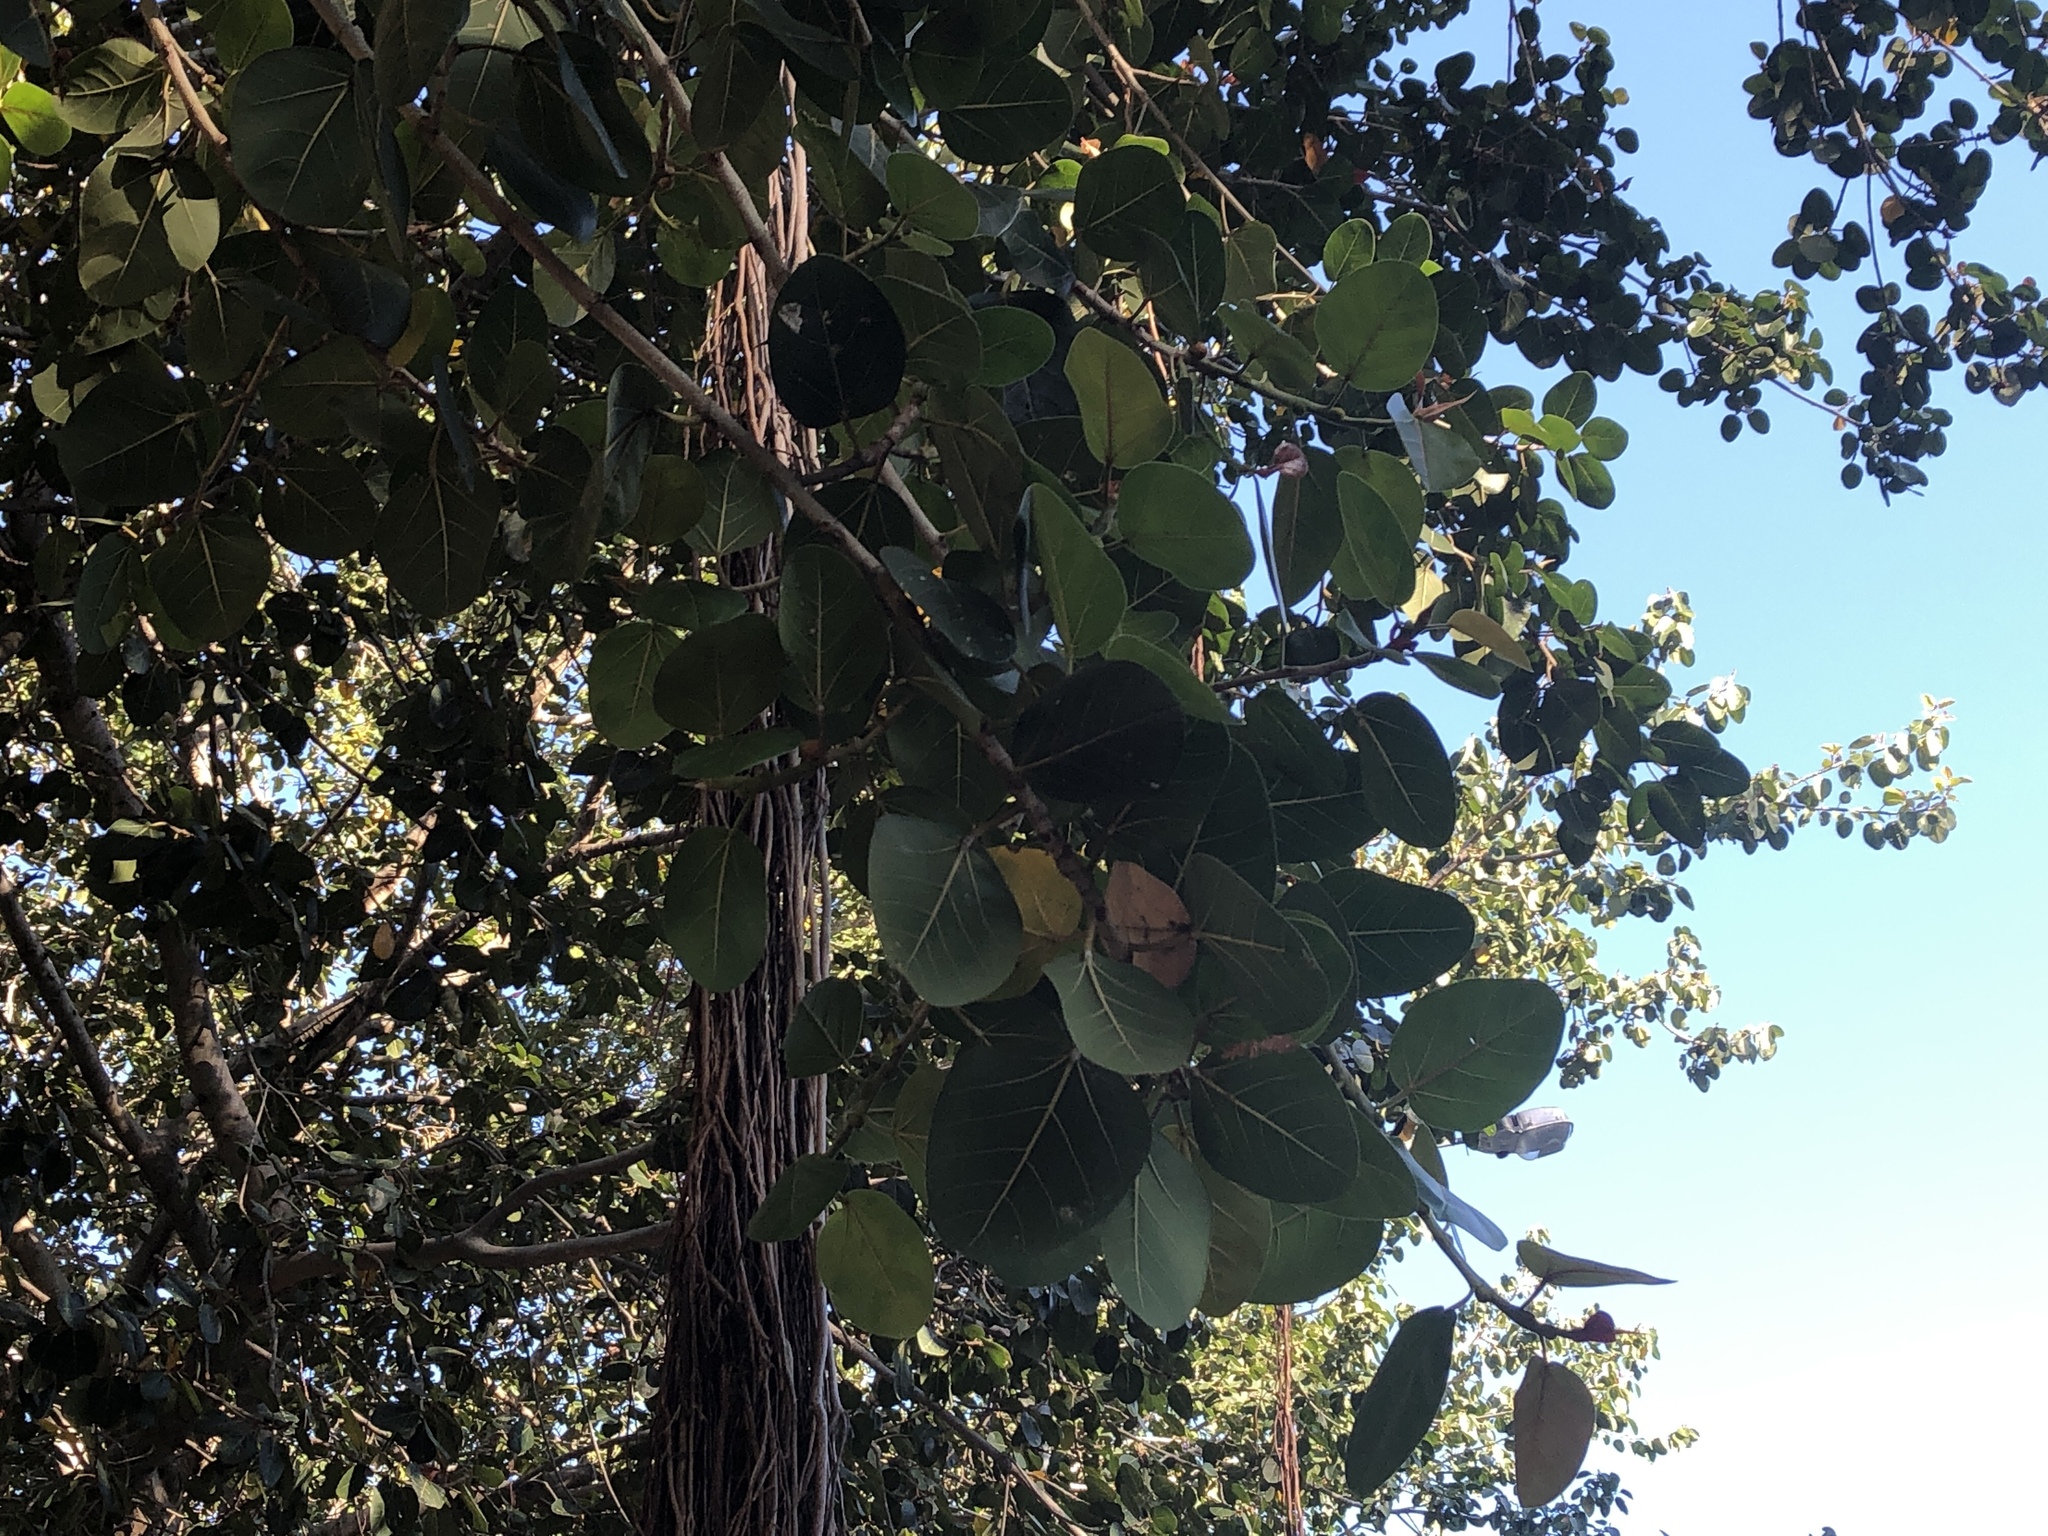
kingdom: Plantae
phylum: Tracheophyta
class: Magnoliopsida
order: Rosales
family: Moraceae
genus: Ficus
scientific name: Ficus benghalensis
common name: Indian banyan
